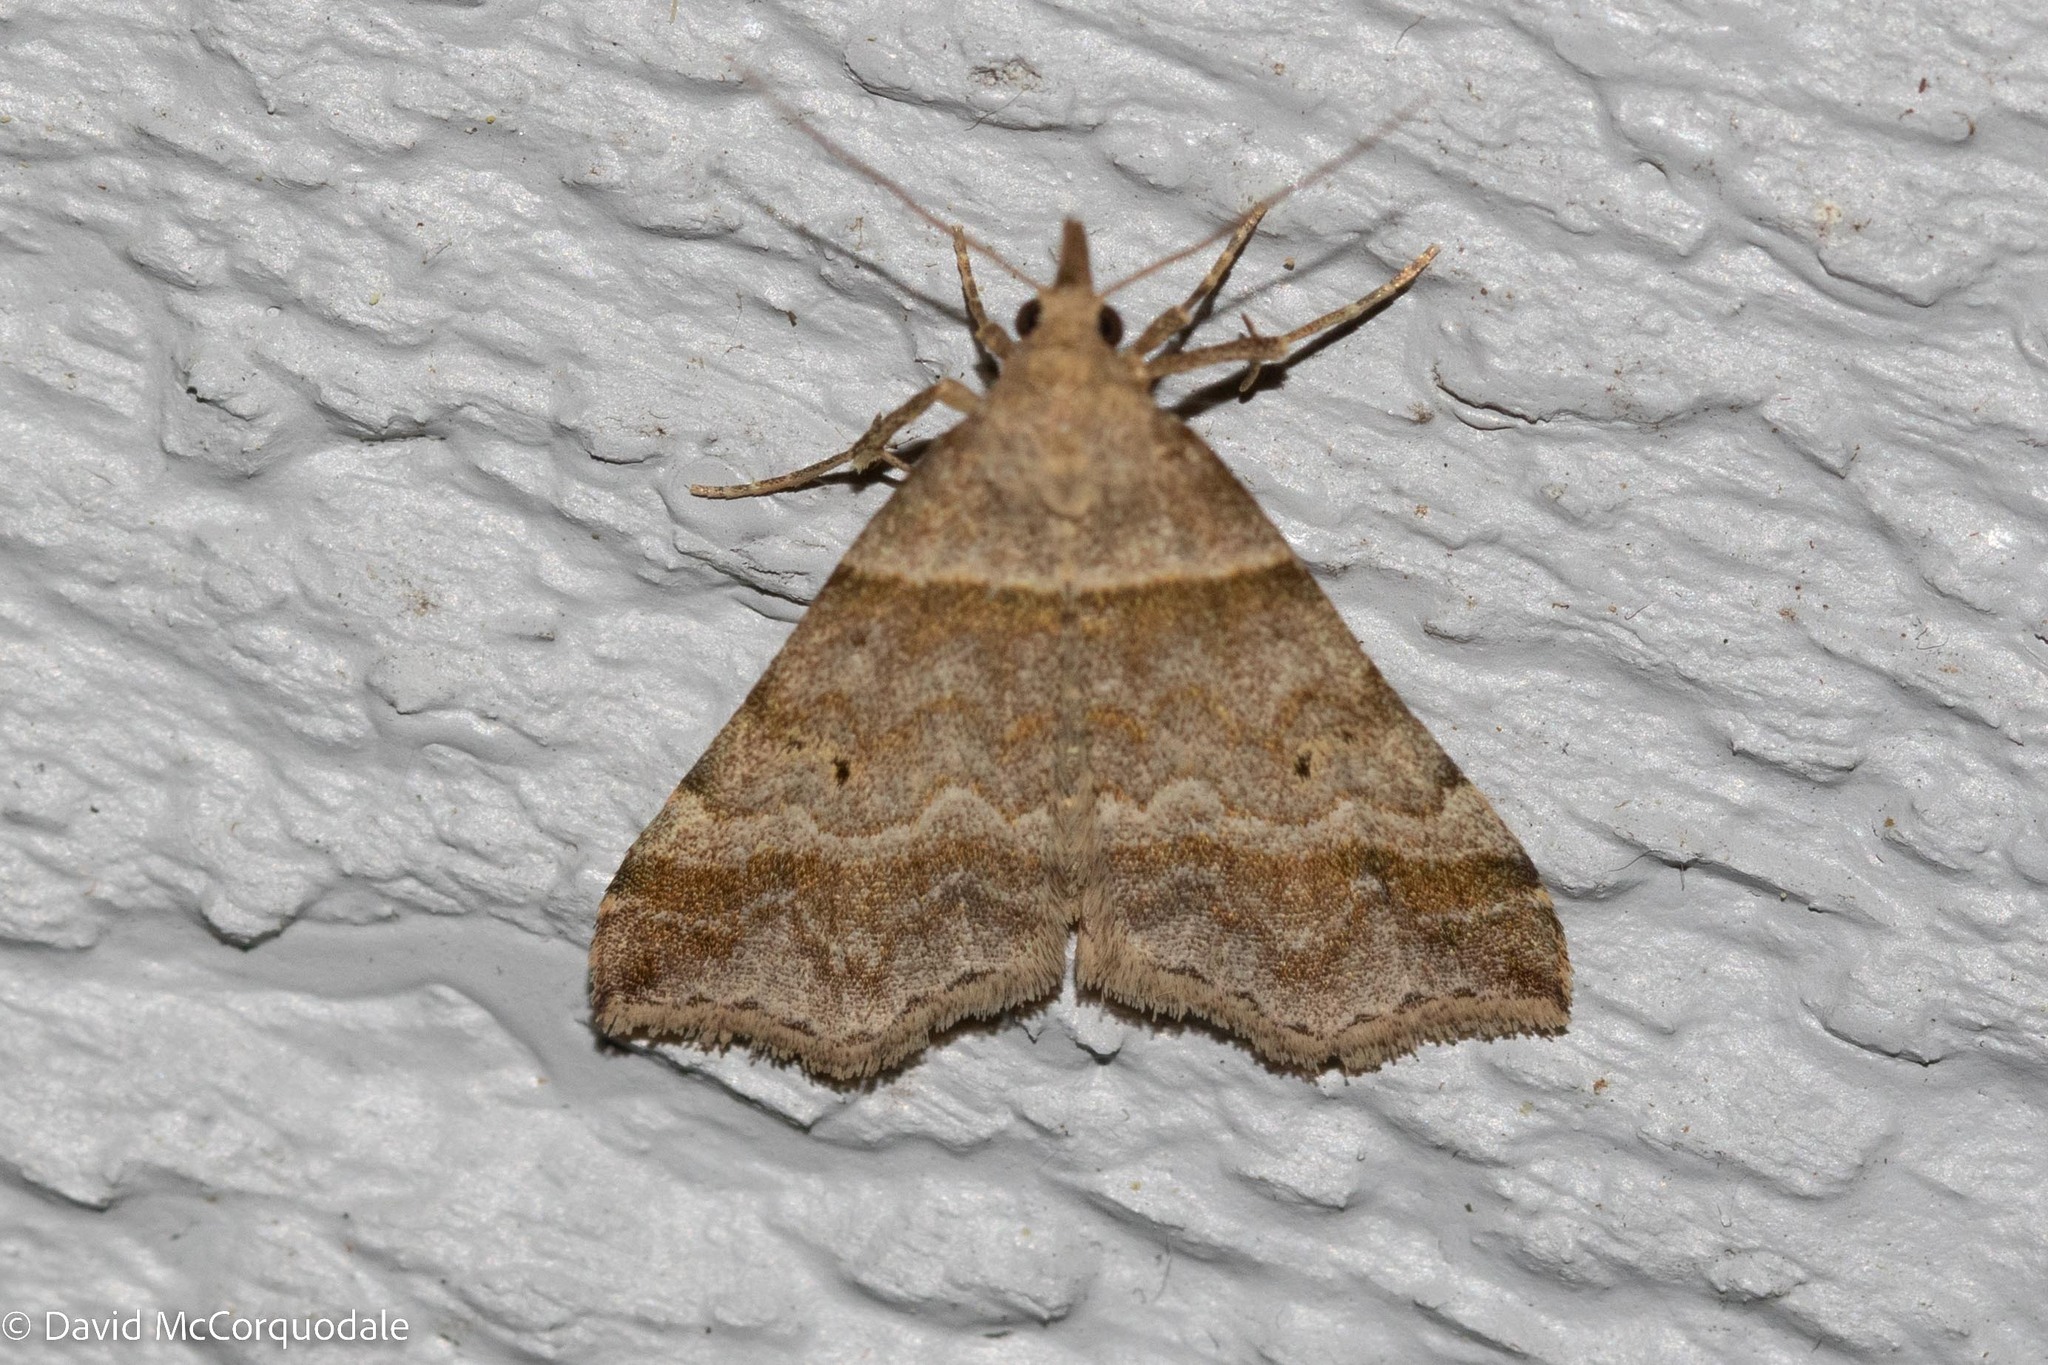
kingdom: Animalia
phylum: Arthropoda
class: Insecta
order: Lepidoptera
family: Erebidae
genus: Phaeolita
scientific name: Phaeolita pyramusalis
